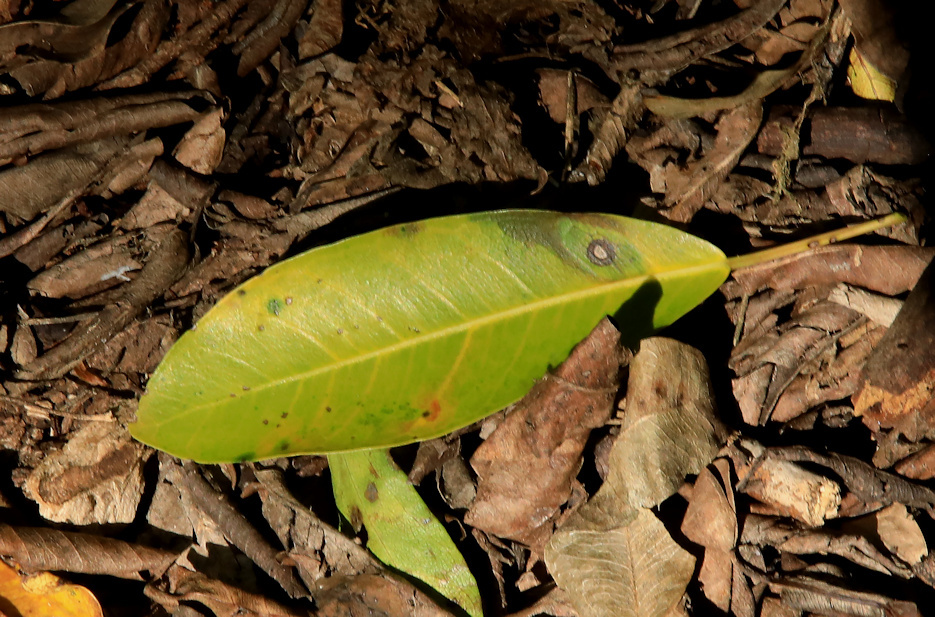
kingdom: Plantae
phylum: Tracheophyta
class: Magnoliopsida
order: Rosales
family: Moraceae
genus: Ficus
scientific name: Ficus thonningii
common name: Fig
